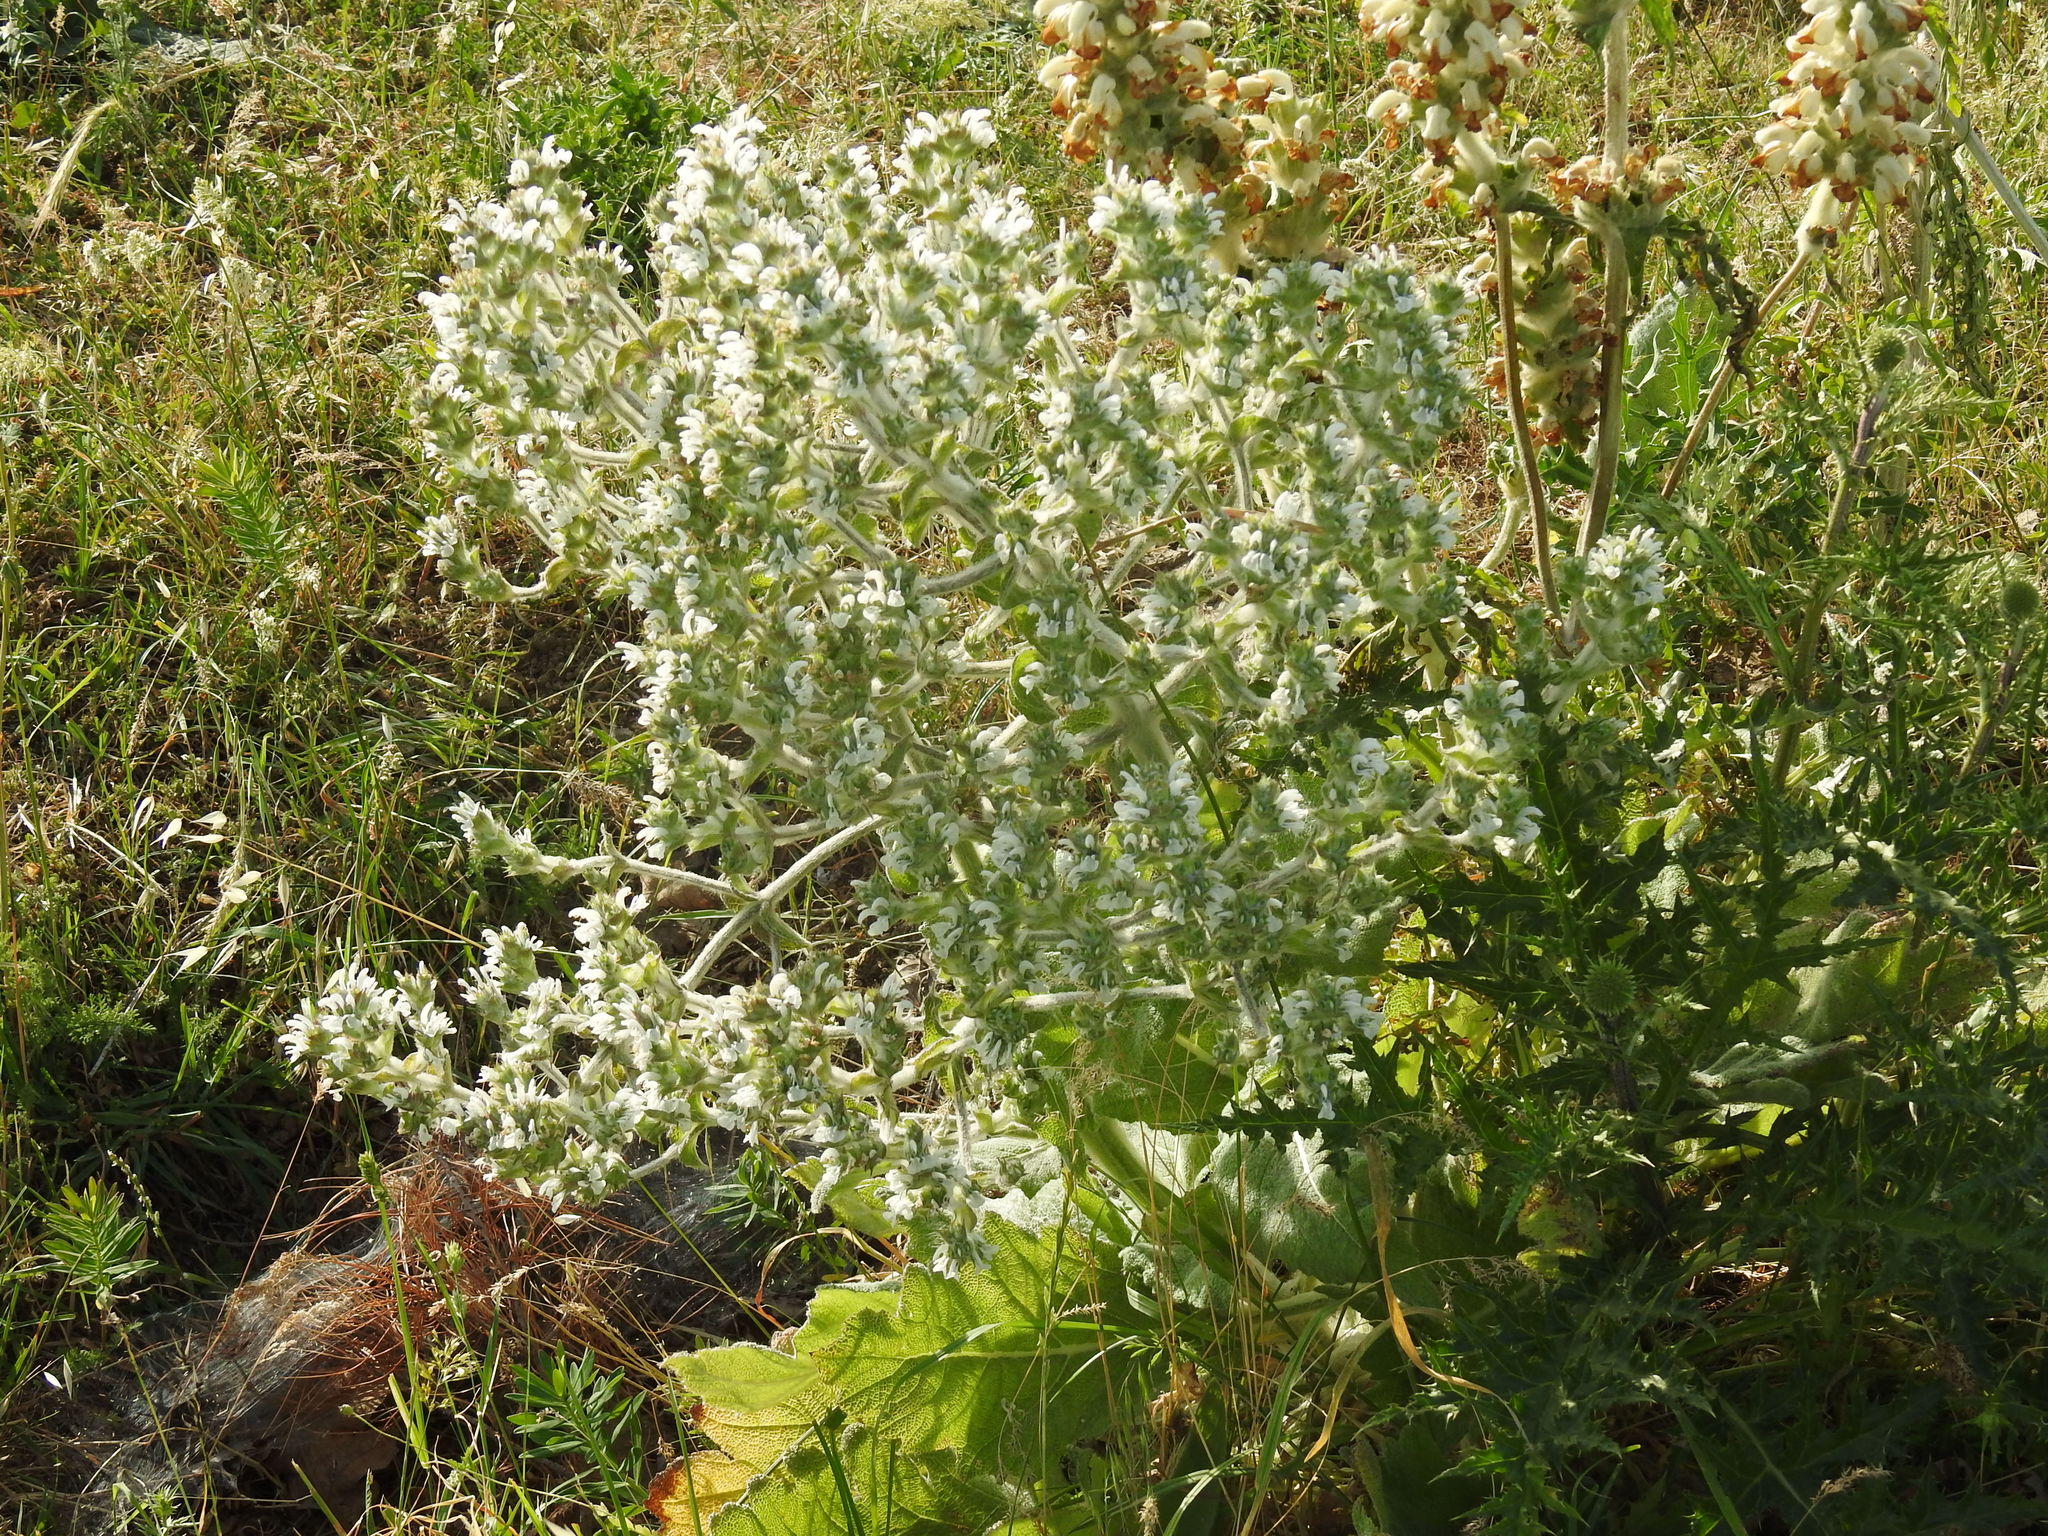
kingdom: Plantae
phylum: Tracheophyta
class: Magnoliopsida
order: Lamiales
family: Lamiaceae
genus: Salvia
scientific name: Salvia aethiopis
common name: Mediterranean sage
